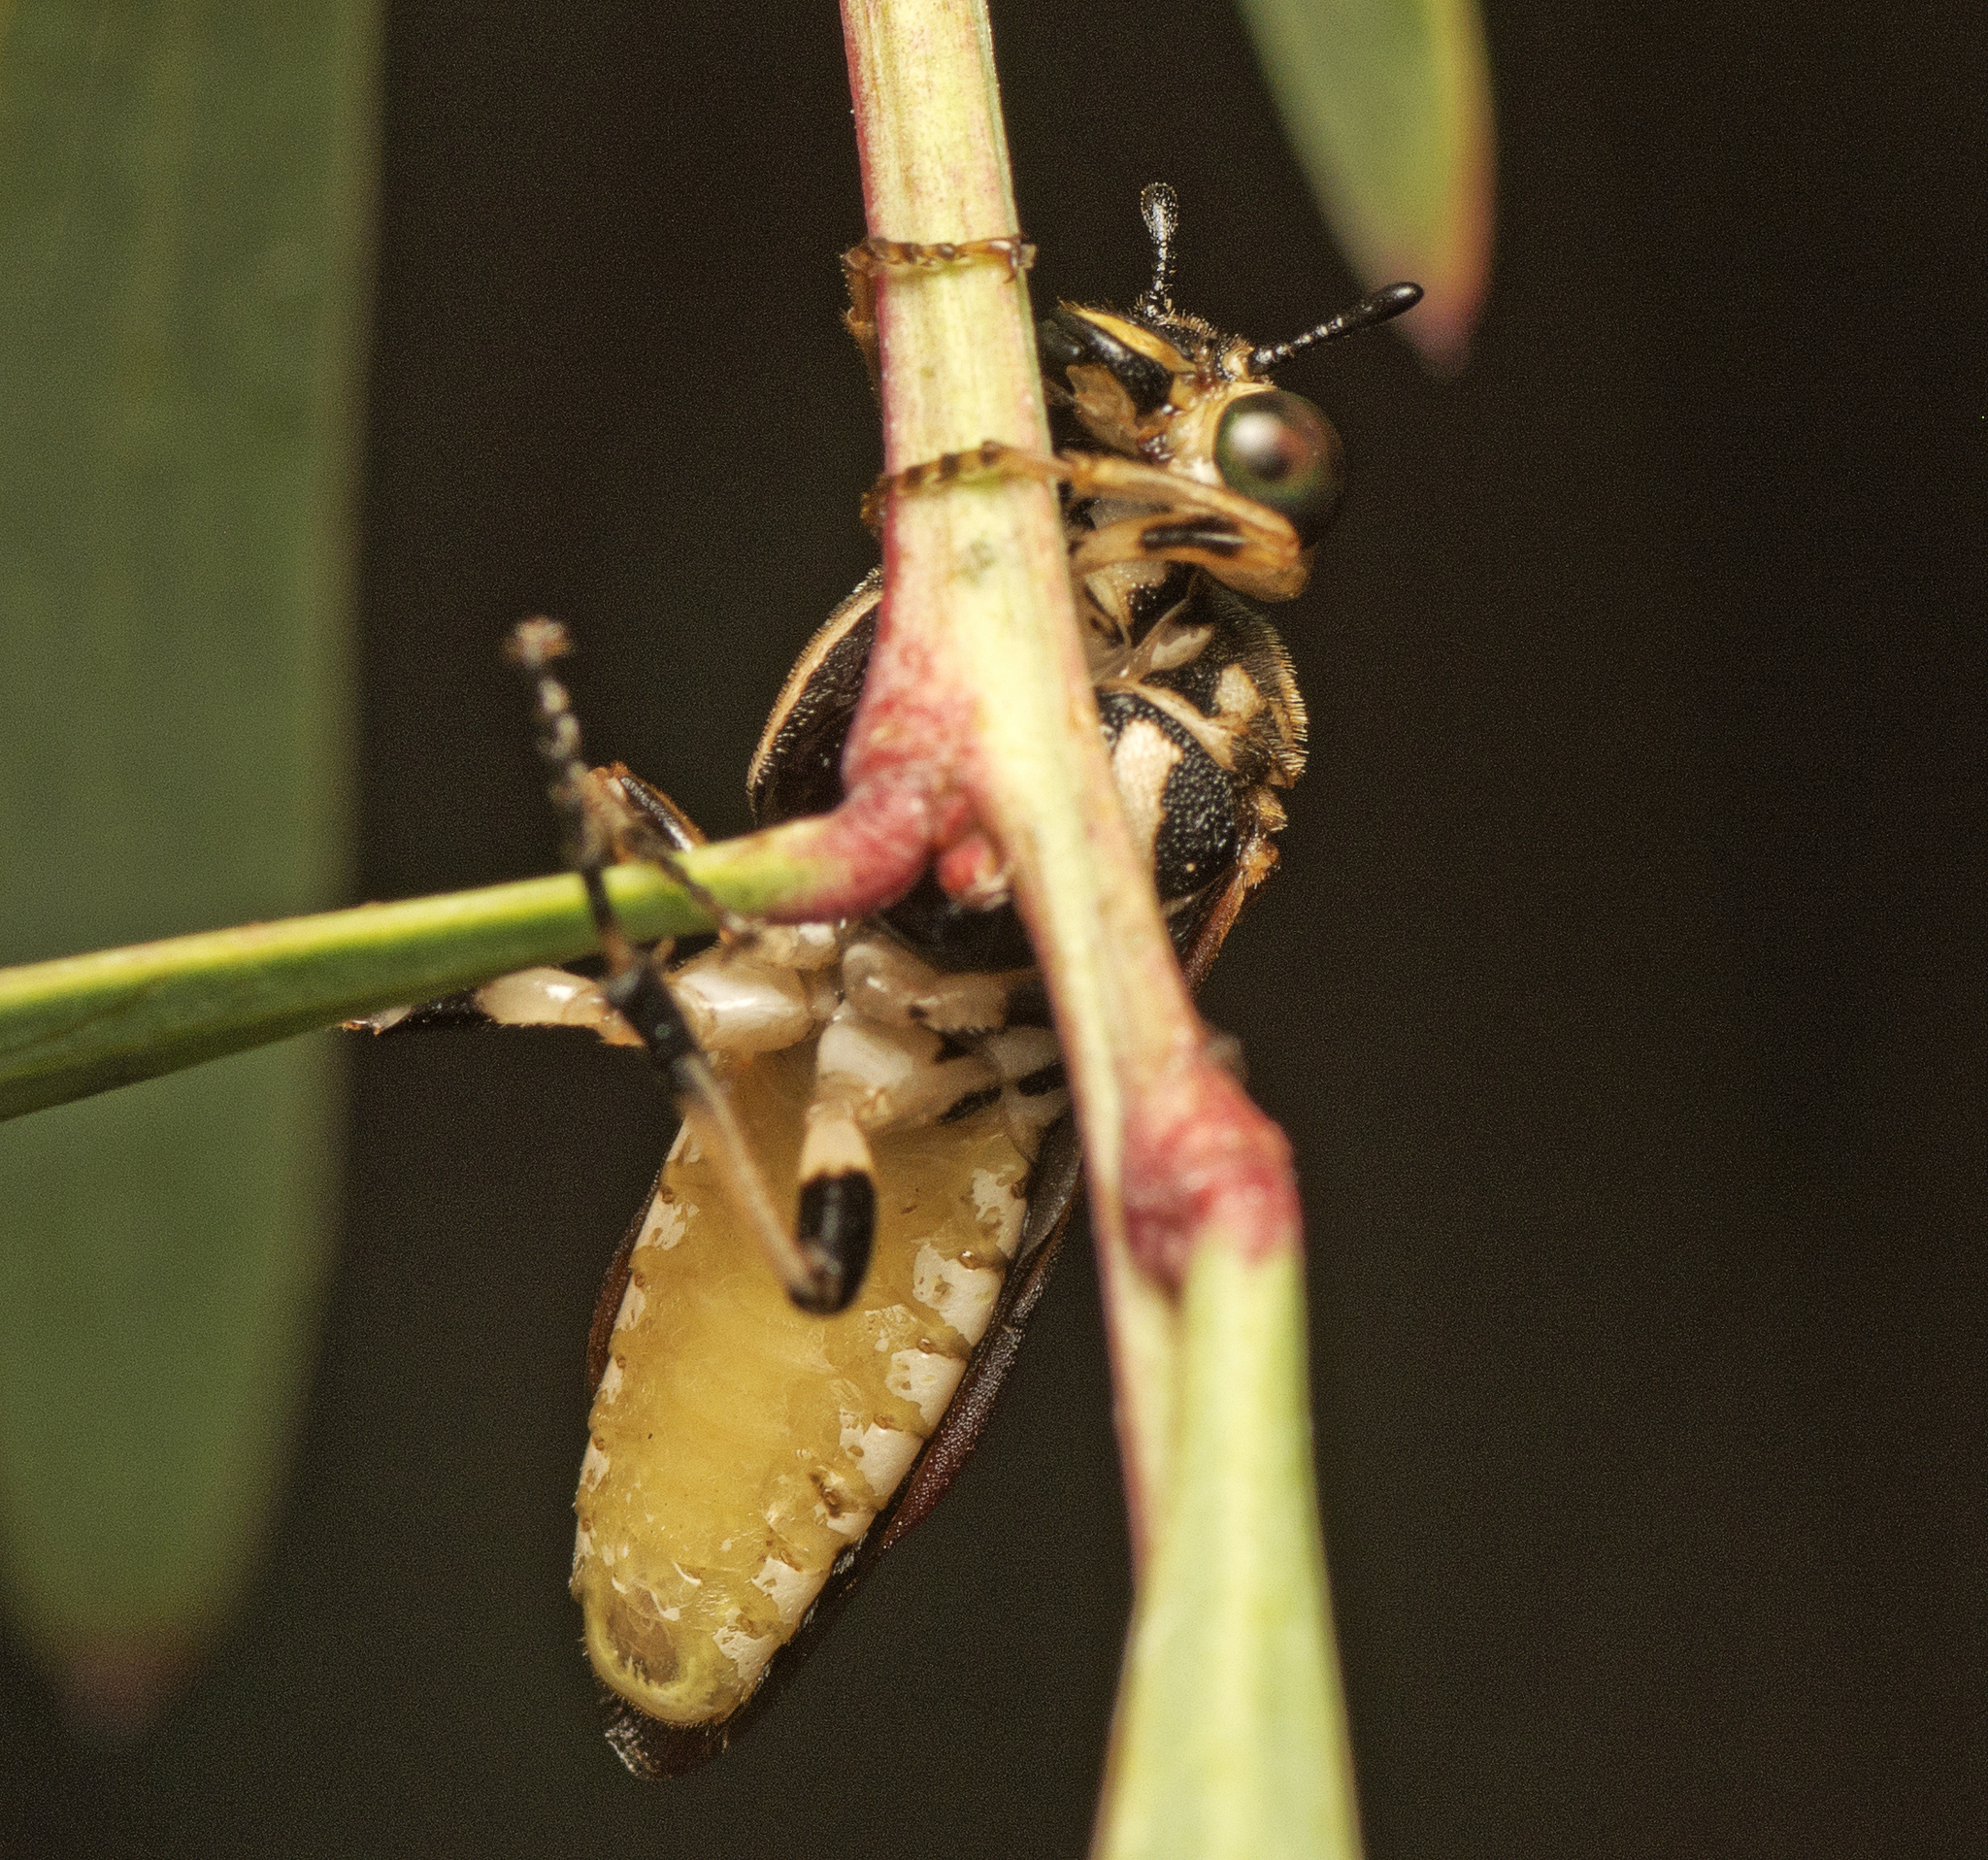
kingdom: Animalia
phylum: Arthropoda
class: Insecta
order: Hymenoptera
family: Pergidae
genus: Pseudoperga
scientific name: Pseudoperga guerinii
